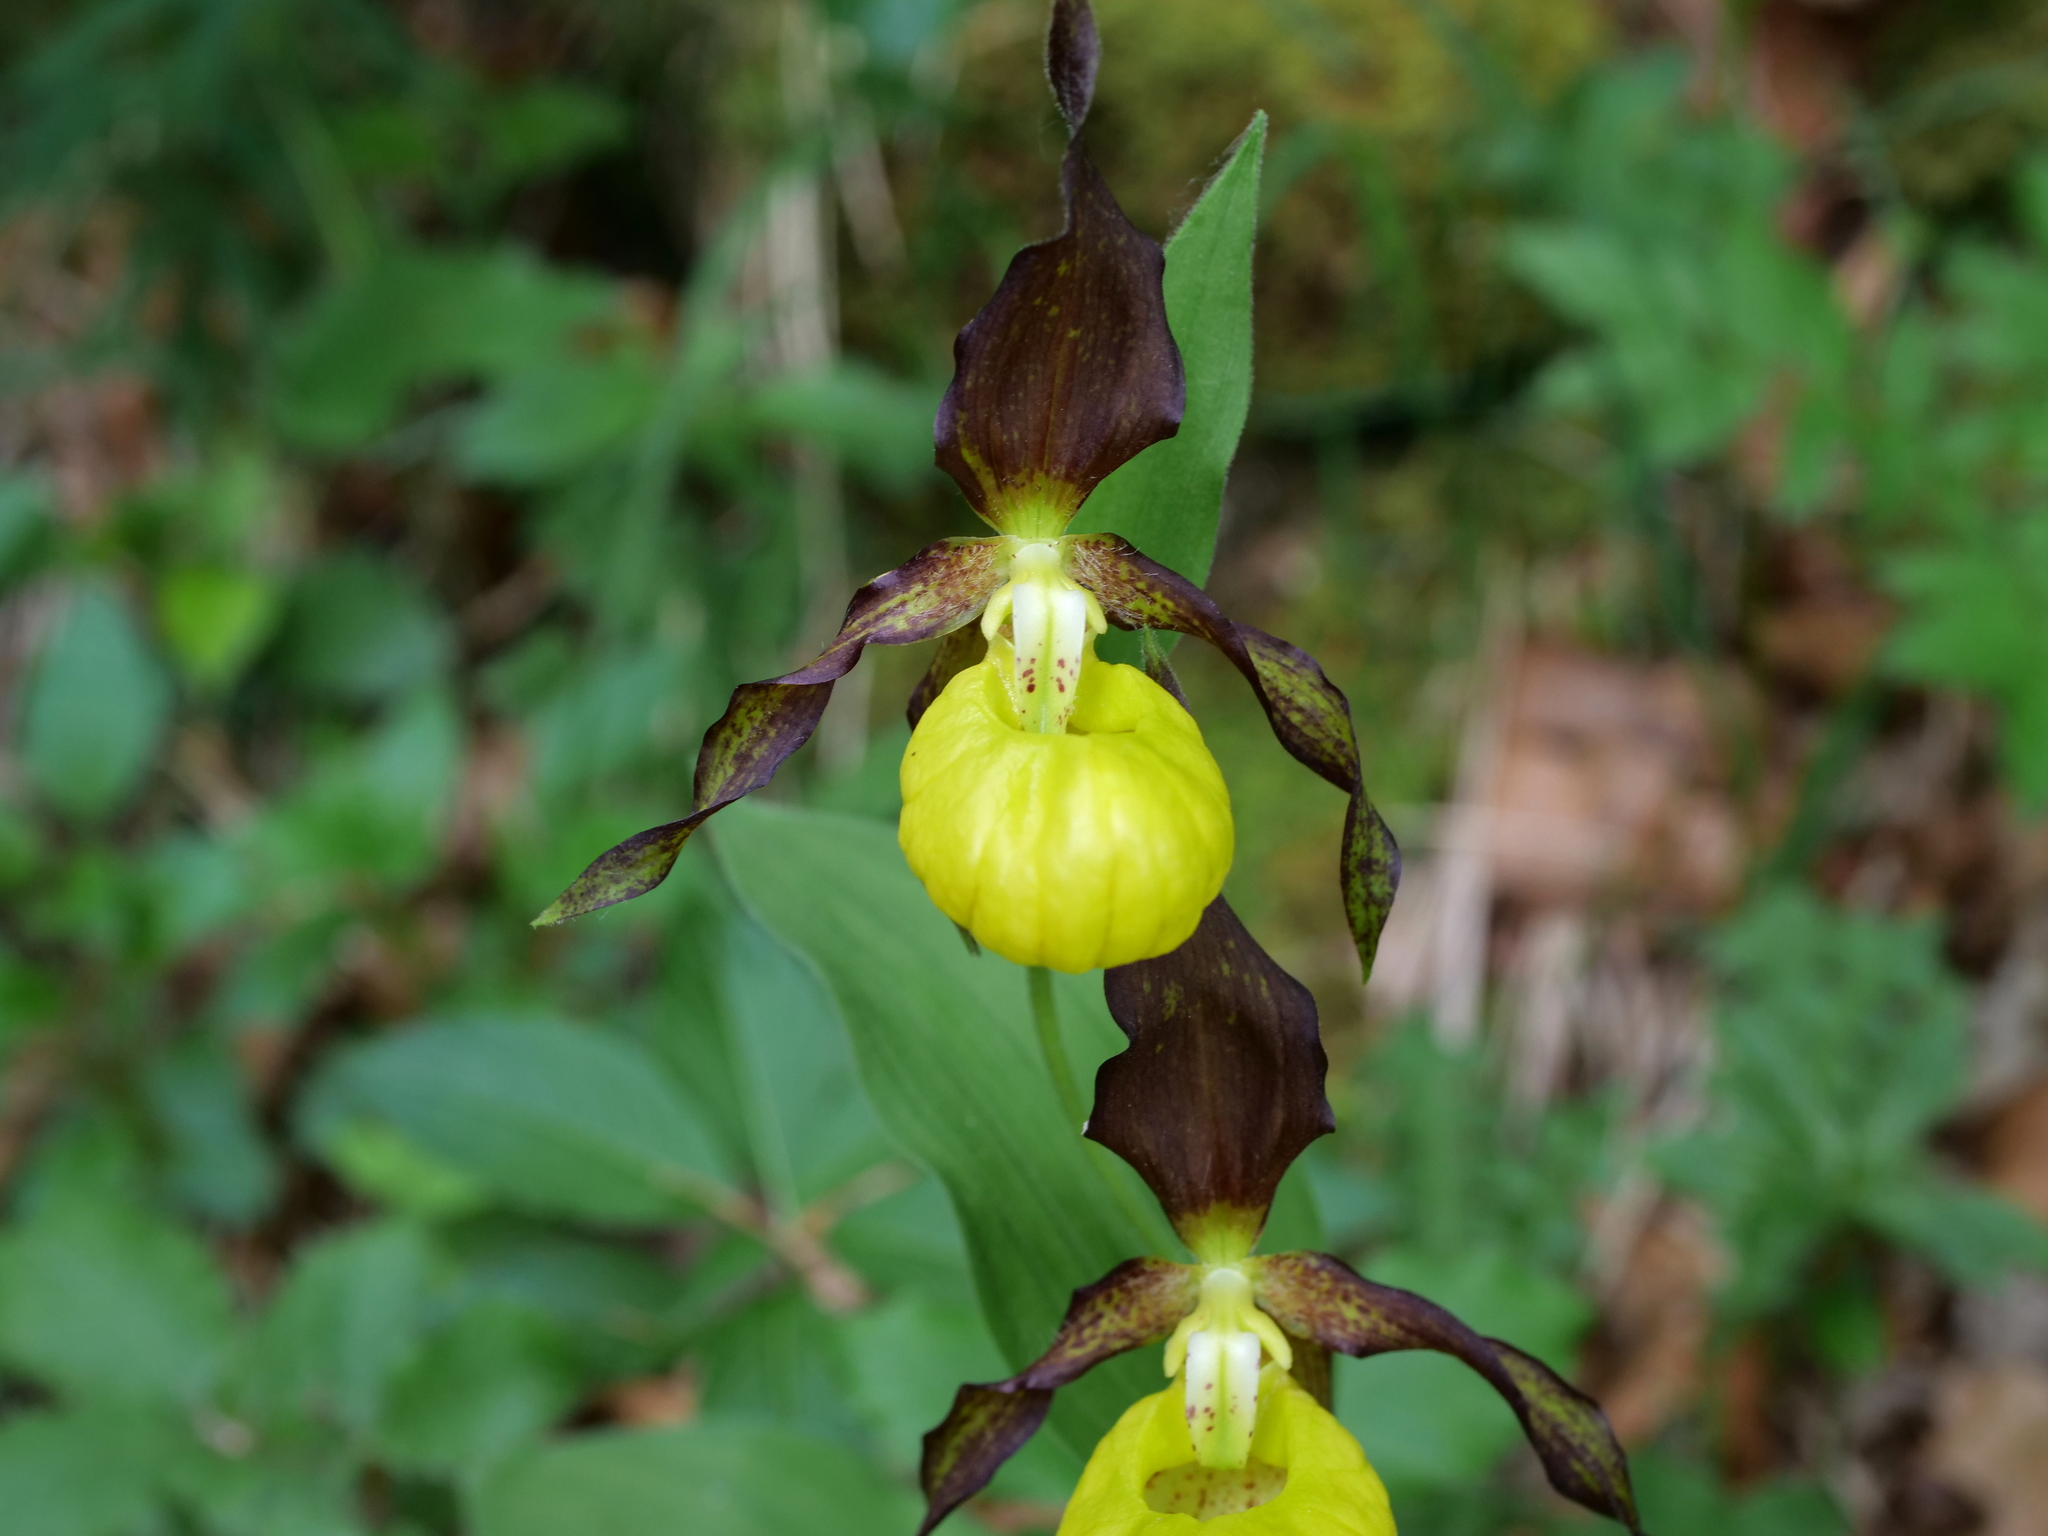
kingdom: Plantae
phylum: Tracheophyta
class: Liliopsida
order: Asparagales
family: Orchidaceae
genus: Cypripedium
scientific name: Cypripedium calceolus
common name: Lady's-slipper
